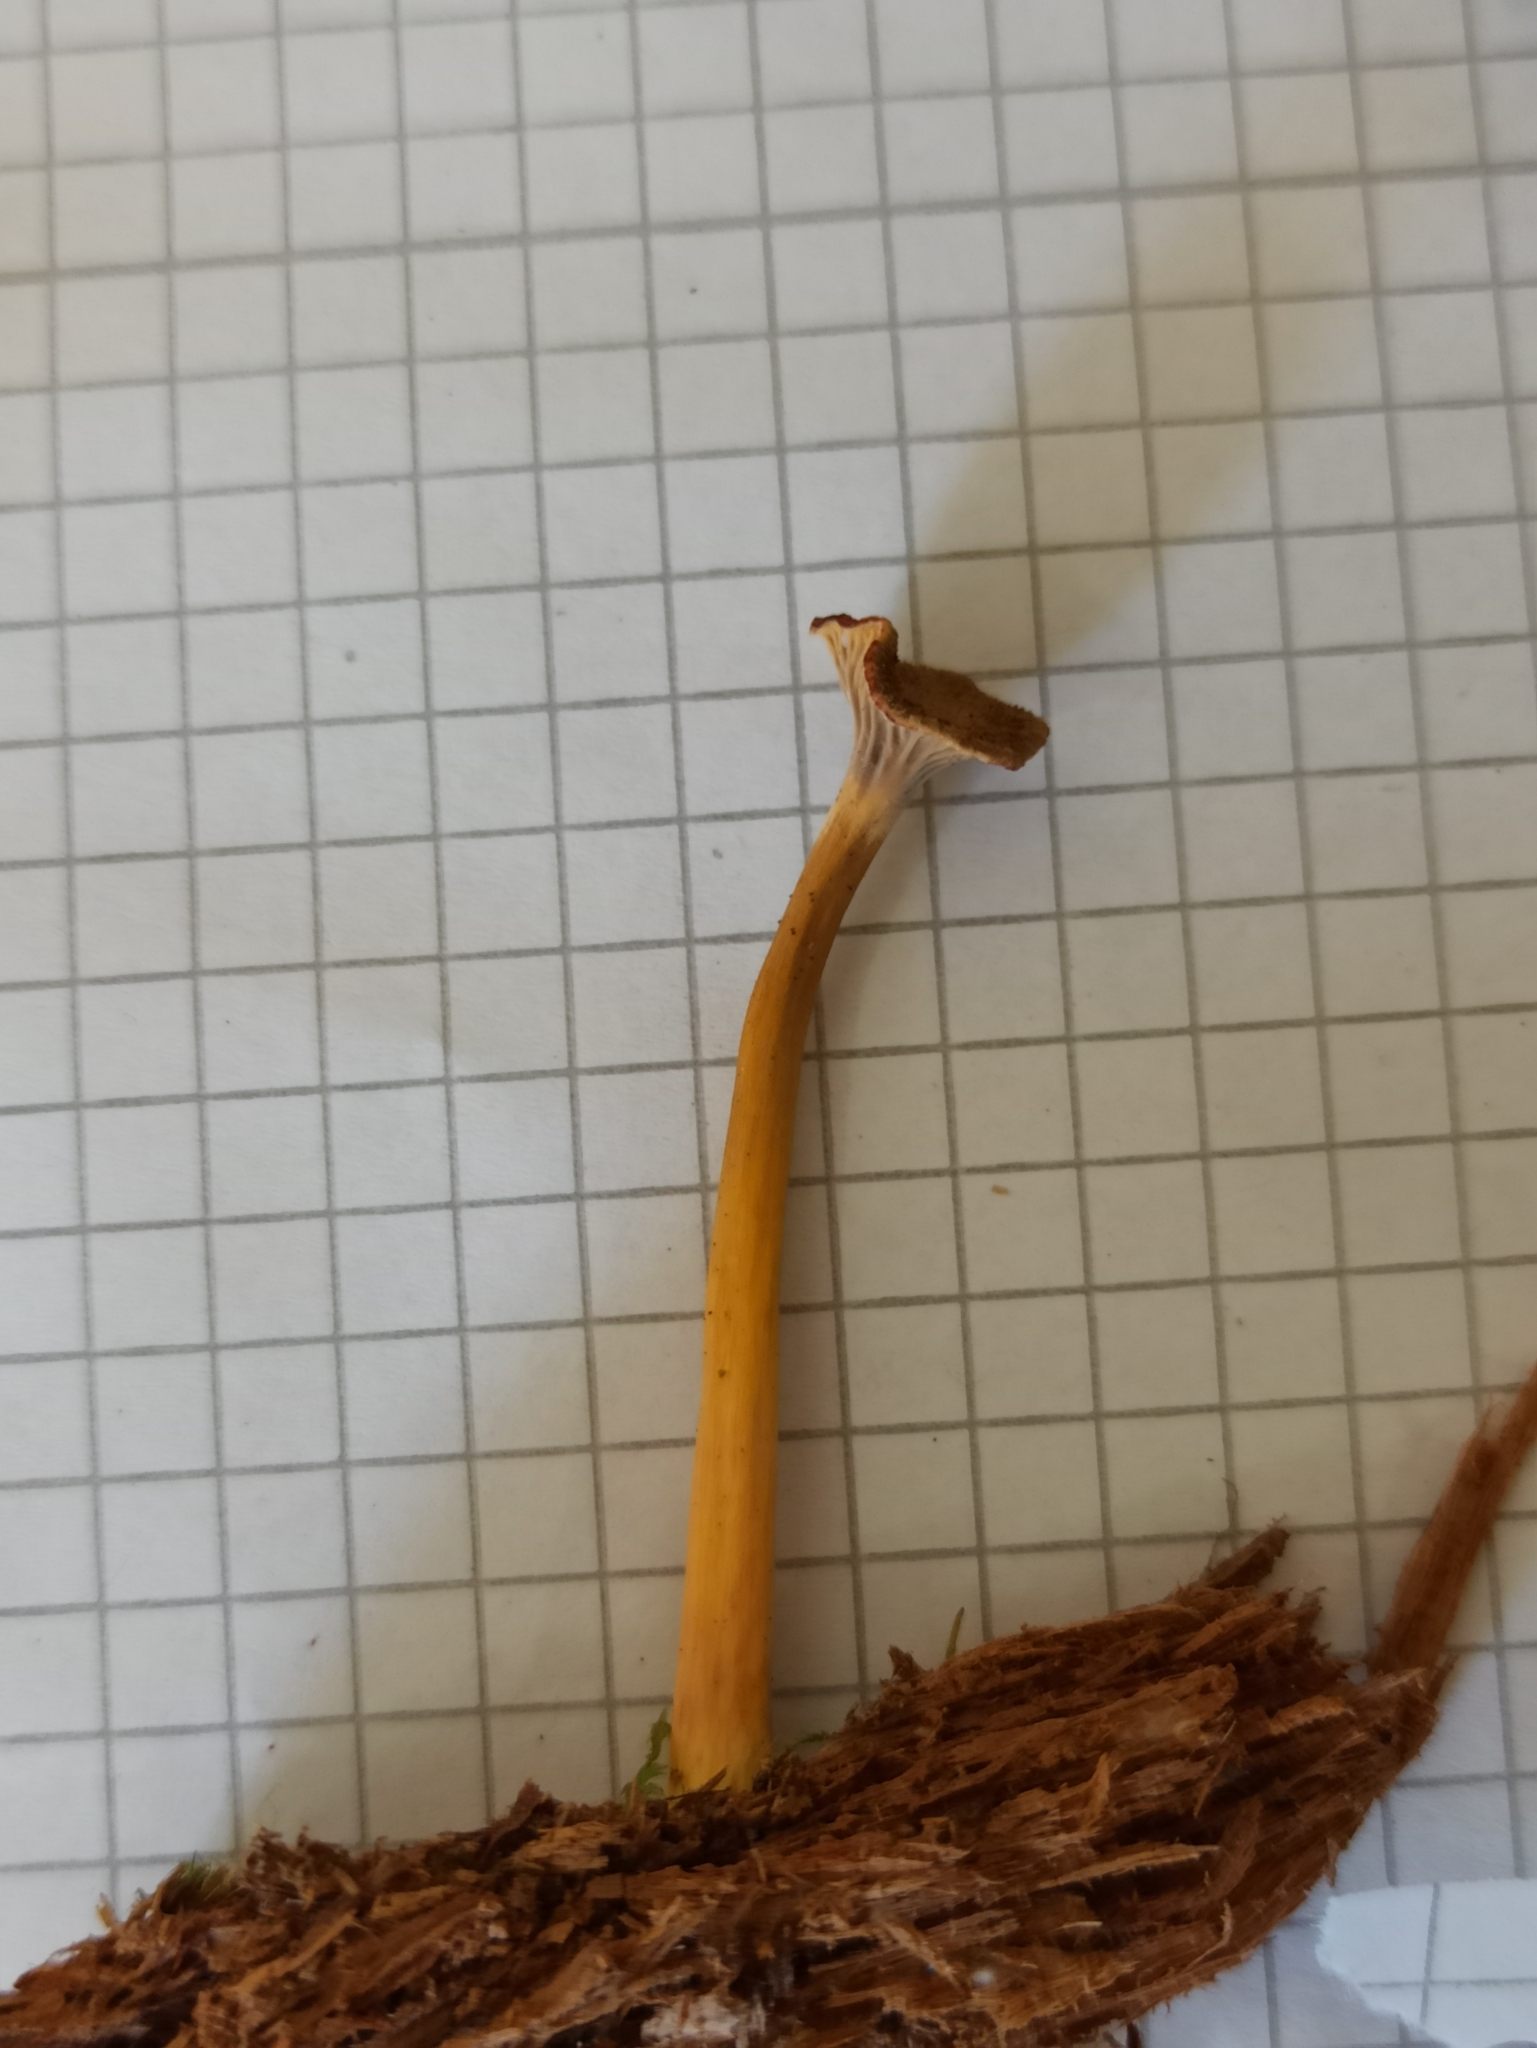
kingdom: Fungi
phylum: Basidiomycota
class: Agaricomycetes
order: Cantharellales
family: Hydnaceae
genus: Craterellus
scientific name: Craterellus tubaeformis
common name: Yellowfoot
